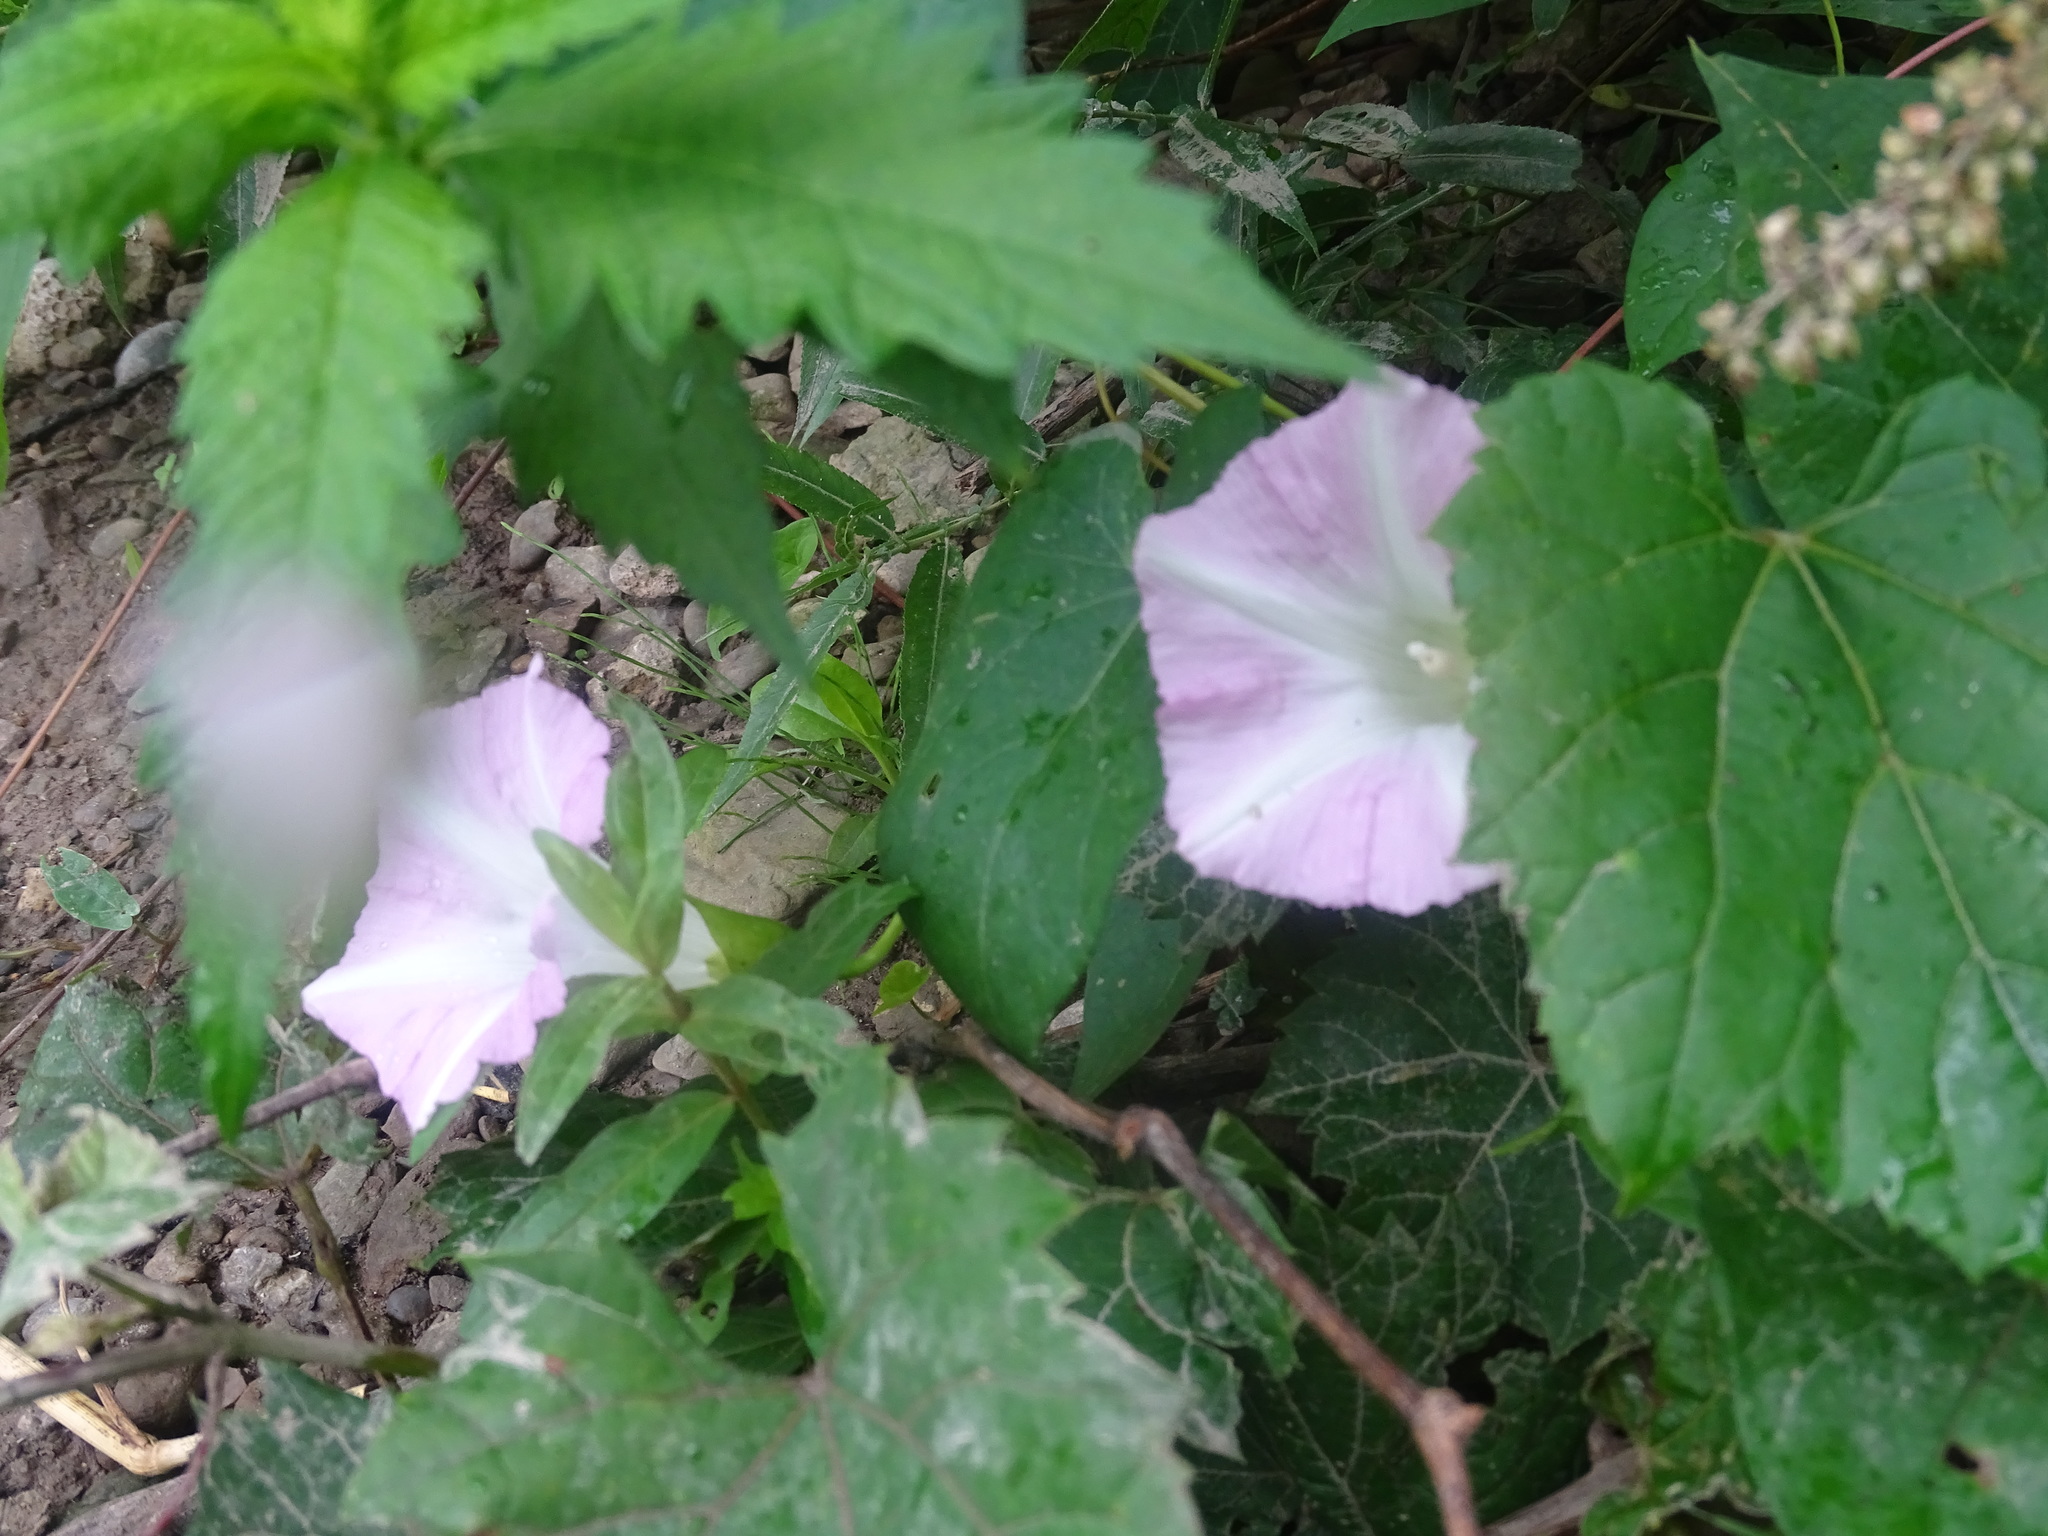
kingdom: Plantae
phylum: Tracheophyta
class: Magnoliopsida
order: Solanales
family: Convolvulaceae
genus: Calystegia
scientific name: Calystegia sepium
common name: Hedge bindweed
